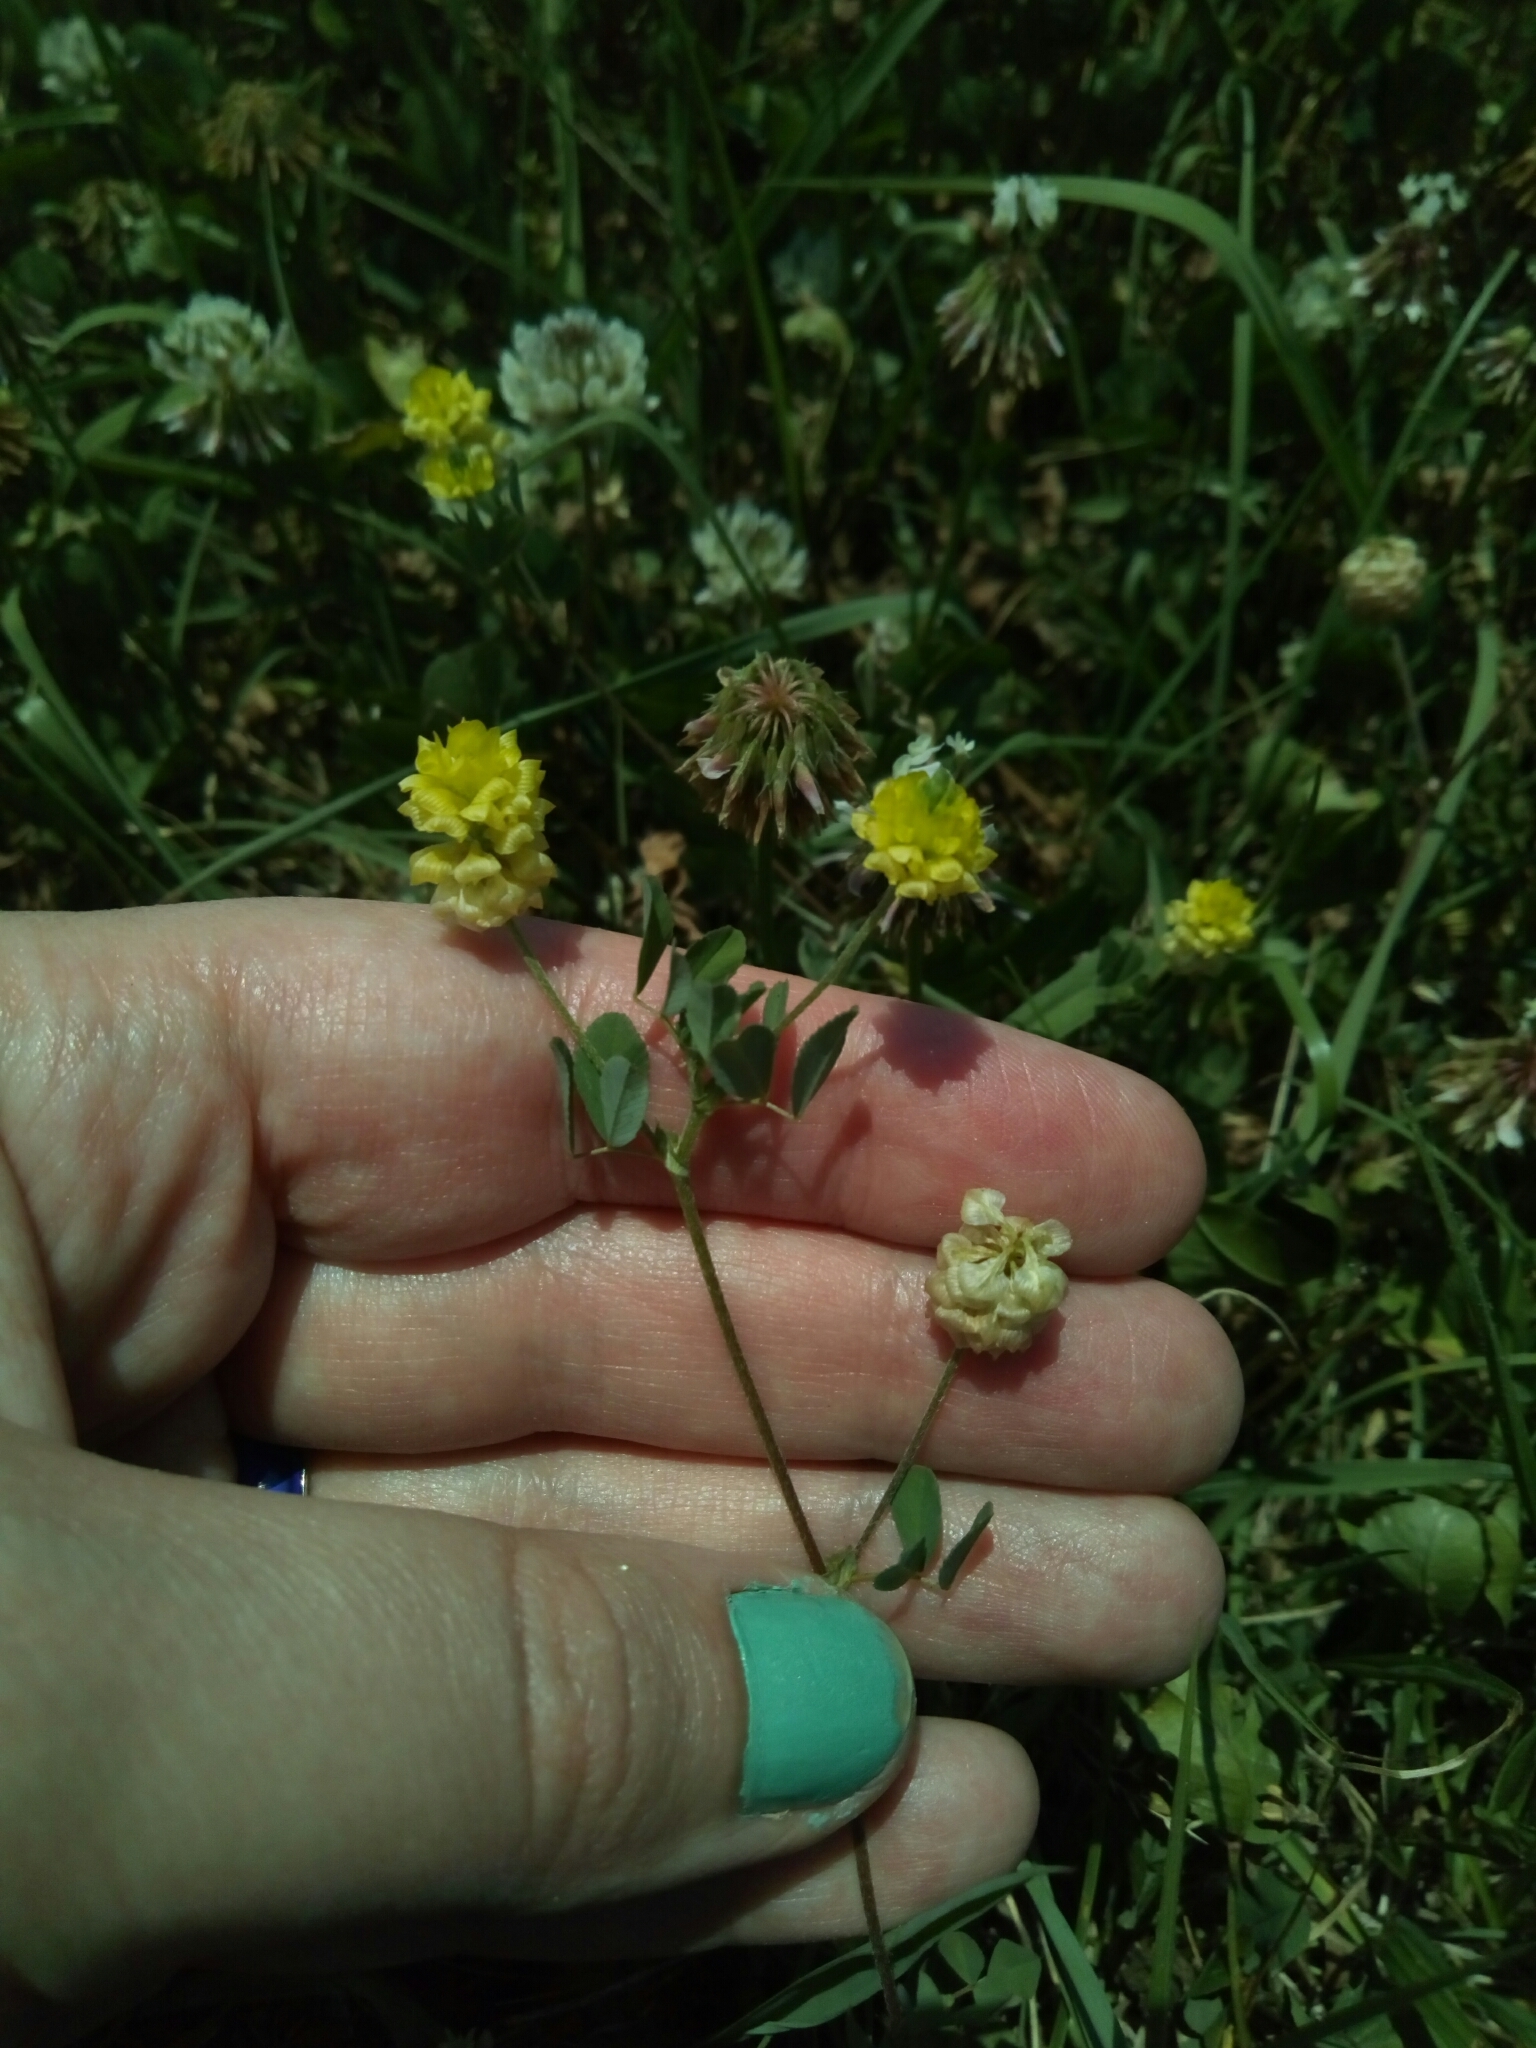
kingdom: Plantae
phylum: Tracheophyta
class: Magnoliopsida
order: Fabales
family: Fabaceae
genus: Trifolium
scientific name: Trifolium campestre
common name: Field clover
